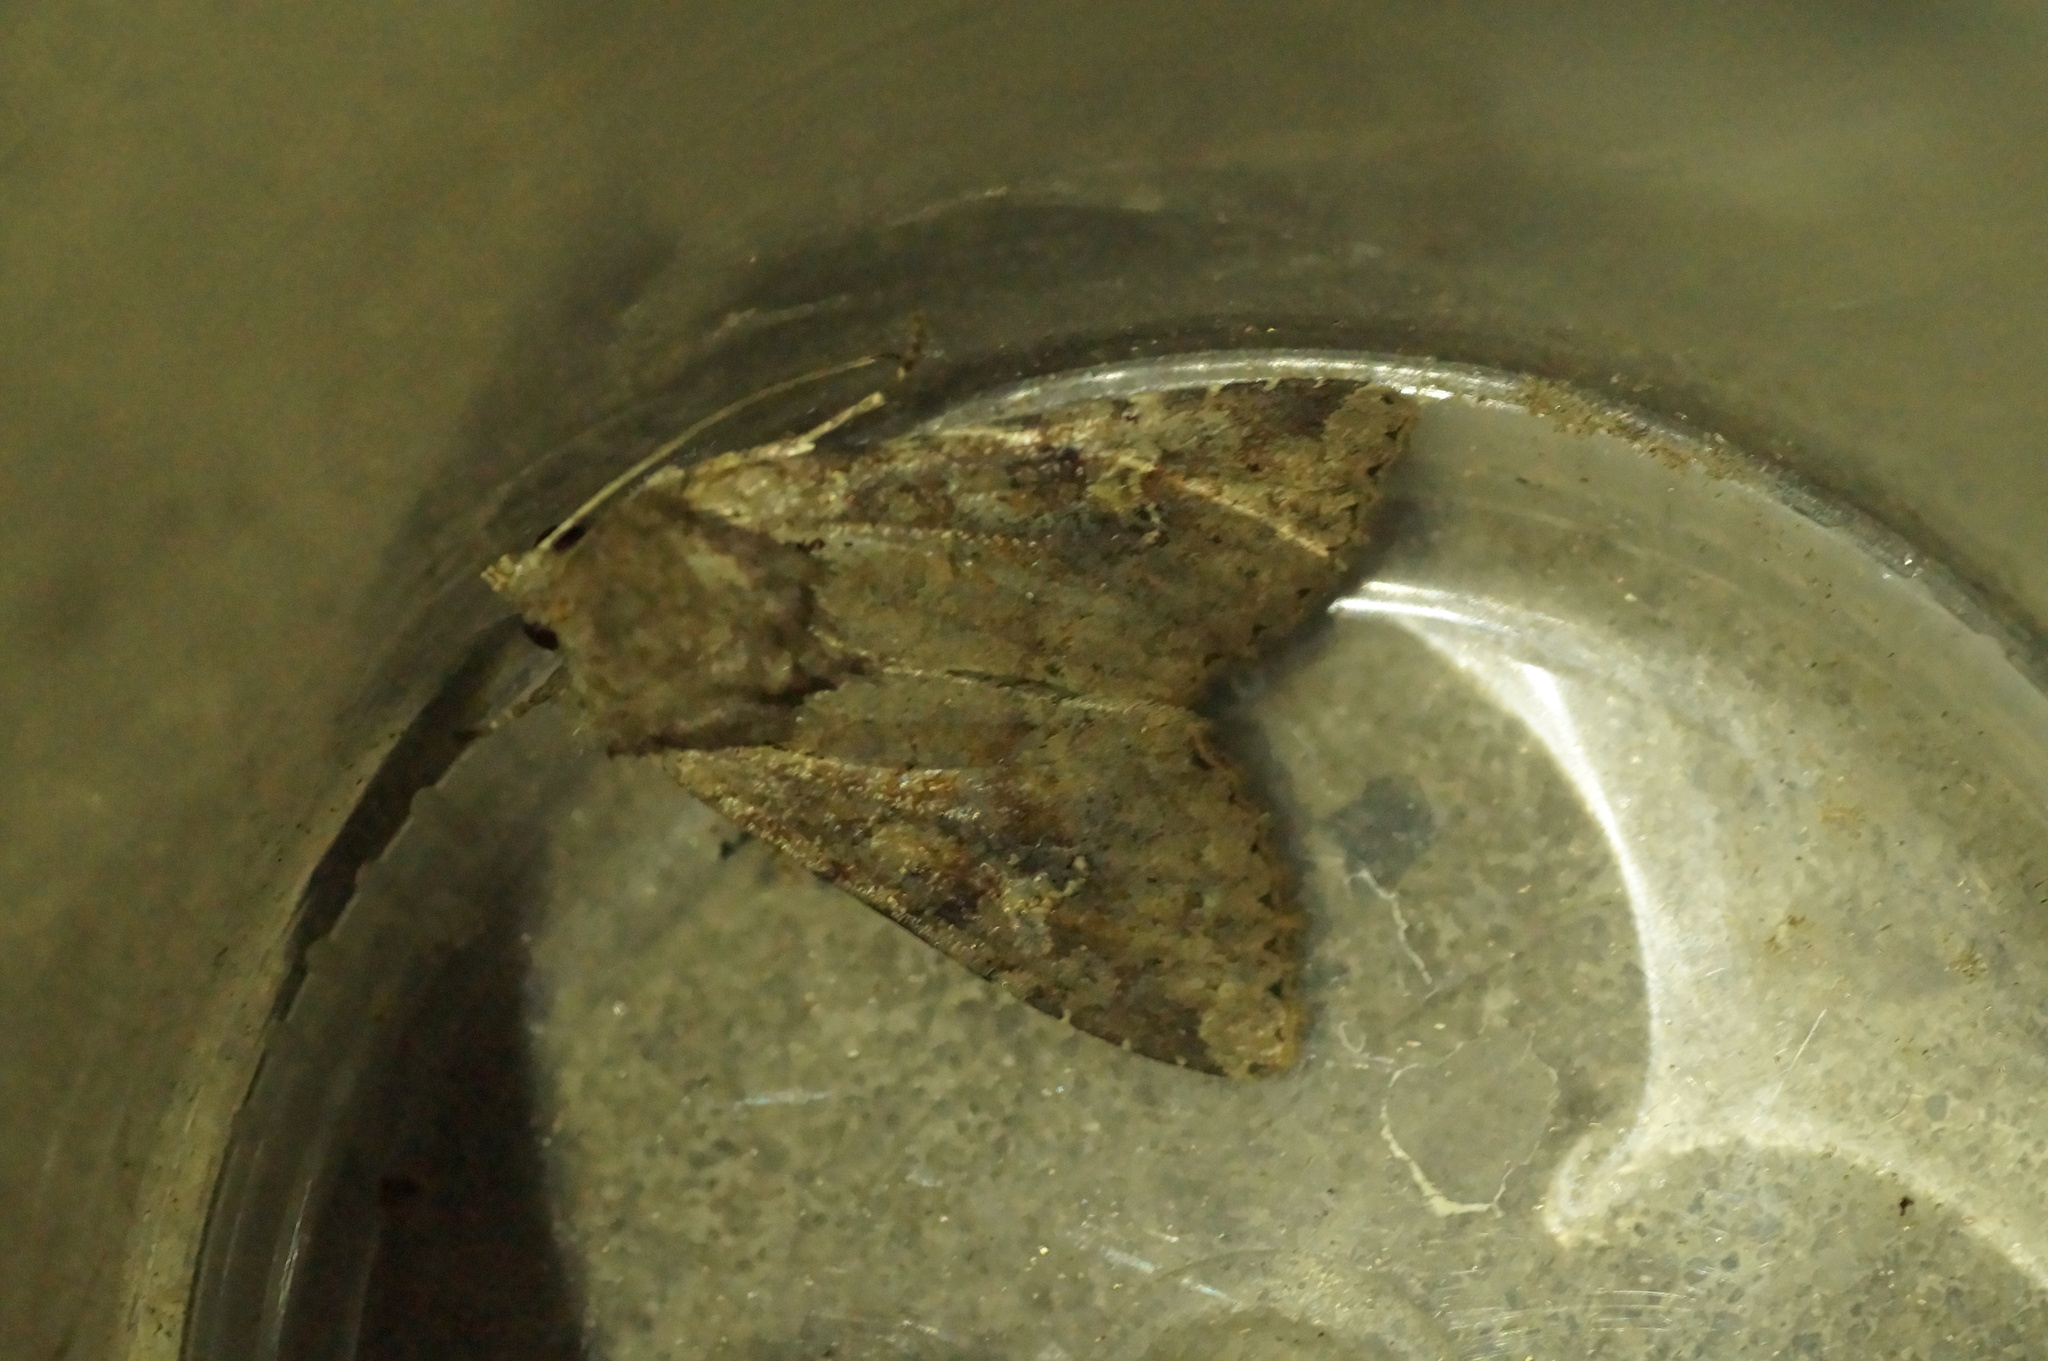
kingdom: Animalia
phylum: Arthropoda
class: Insecta
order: Lepidoptera
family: Noctuidae
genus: Apamea
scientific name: Apamea sordens
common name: Rustic shoulder-knot
